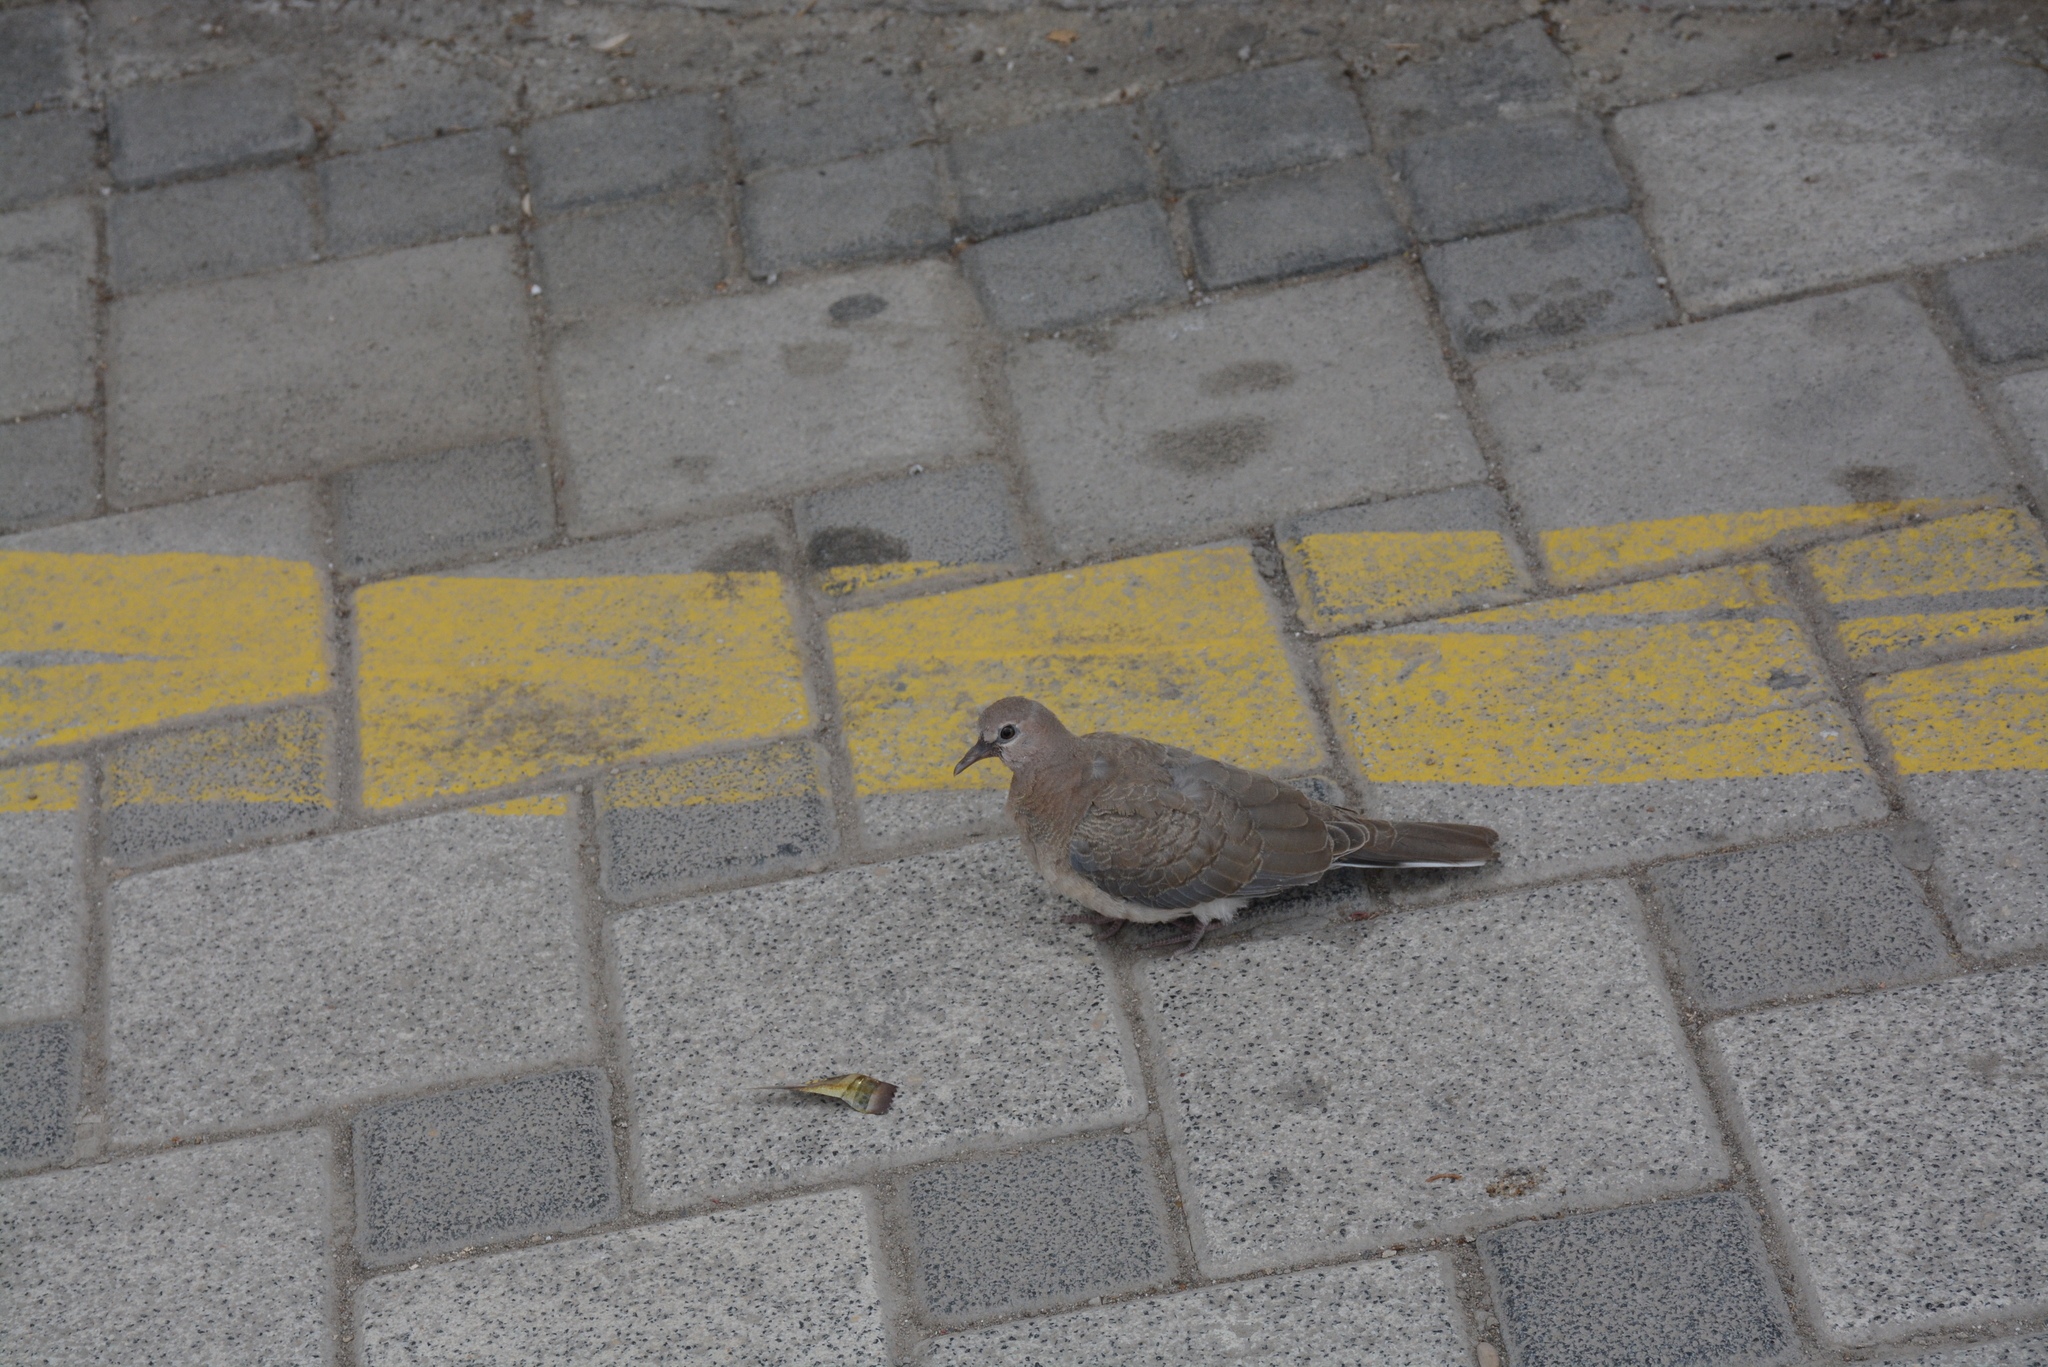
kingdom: Animalia
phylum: Chordata
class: Aves
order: Columbiformes
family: Columbidae
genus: Spilopelia
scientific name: Spilopelia senegalensis
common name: Laughing dove
